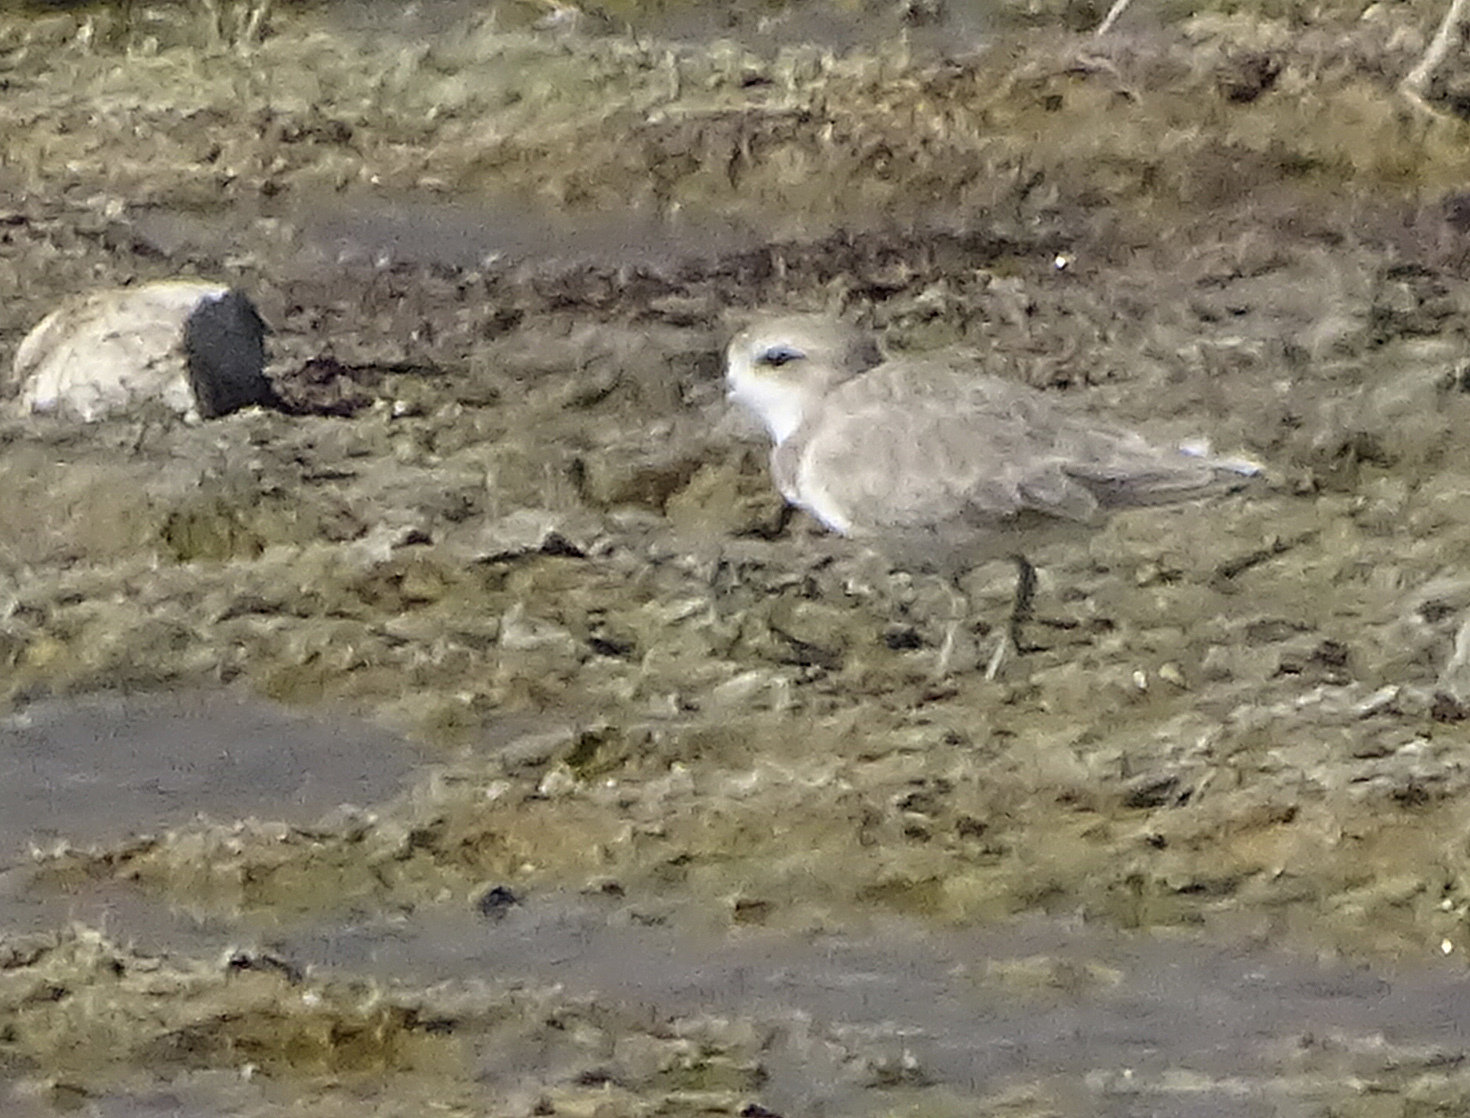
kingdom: Animalia
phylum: Chordata
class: Aves
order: Charadriiformes
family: Charadriidae
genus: Anarhynchus
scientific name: Anarhynchus
